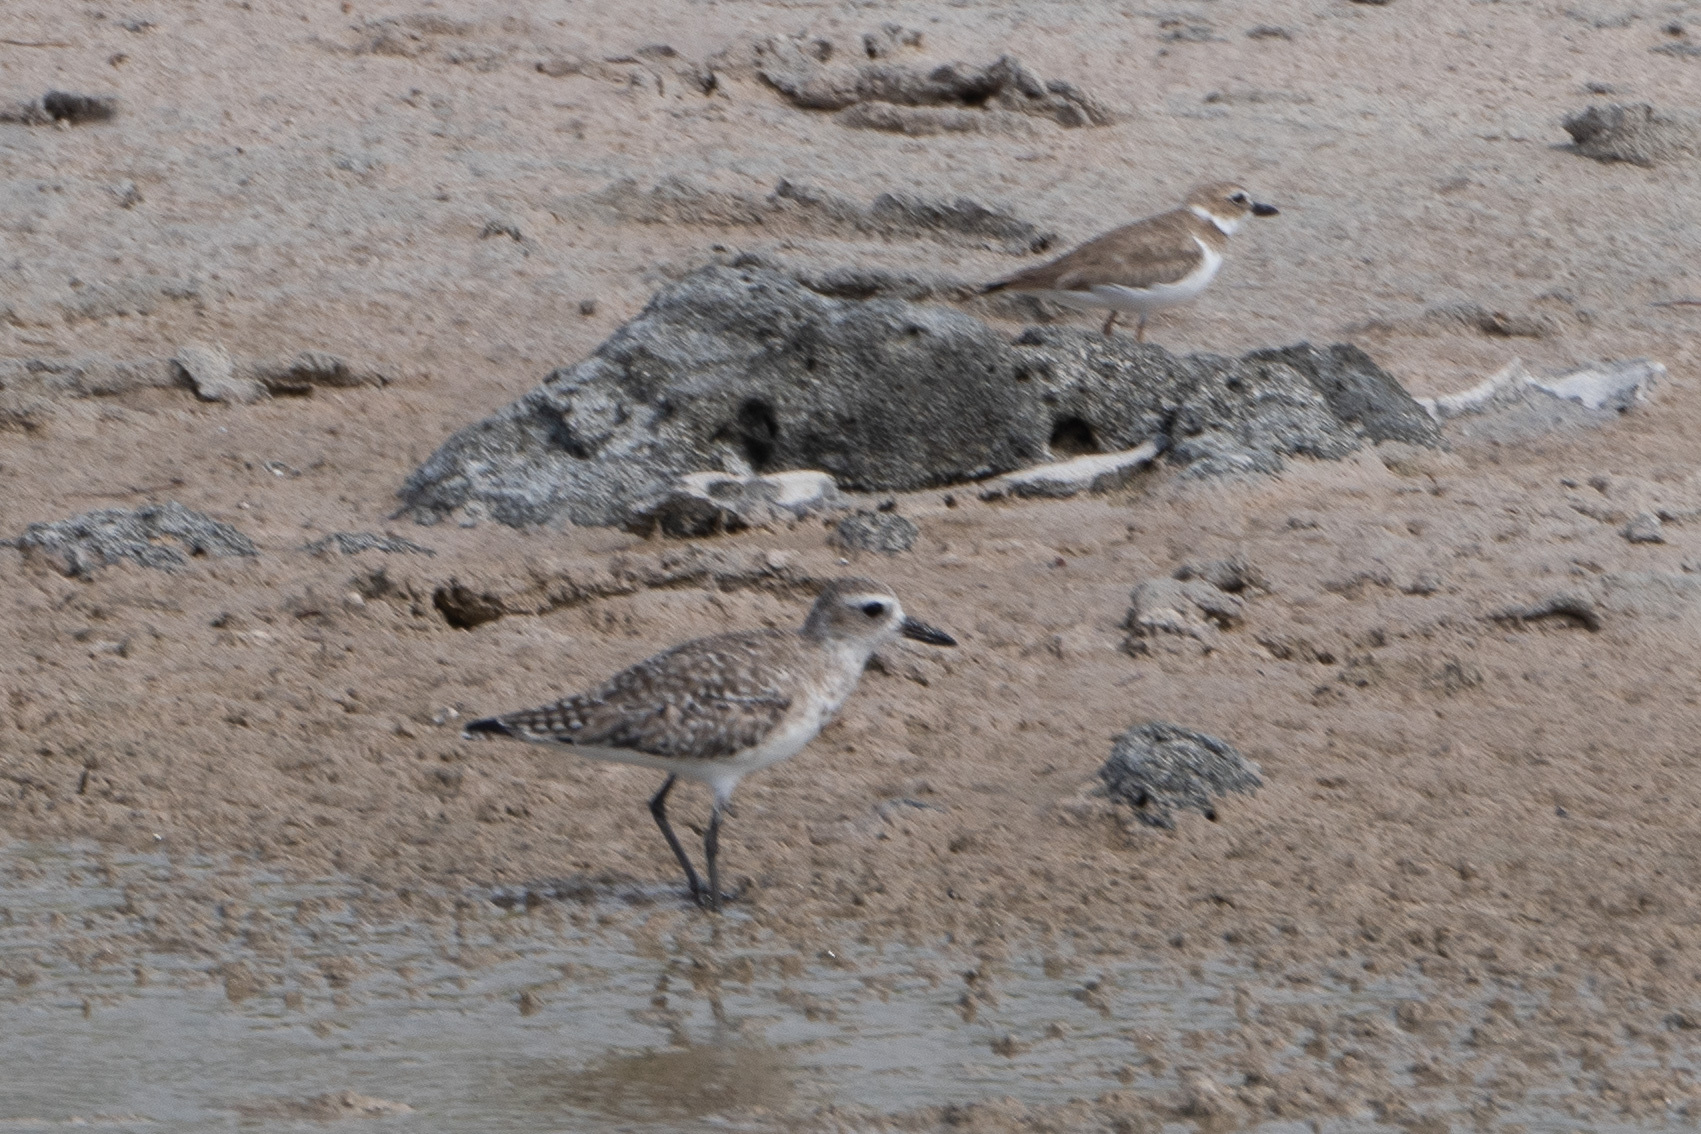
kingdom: Animalia
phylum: Chordata
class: Aves
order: Charadriiformes
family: Charadriidae
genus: Anarhynchus
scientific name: Anarhynchus
